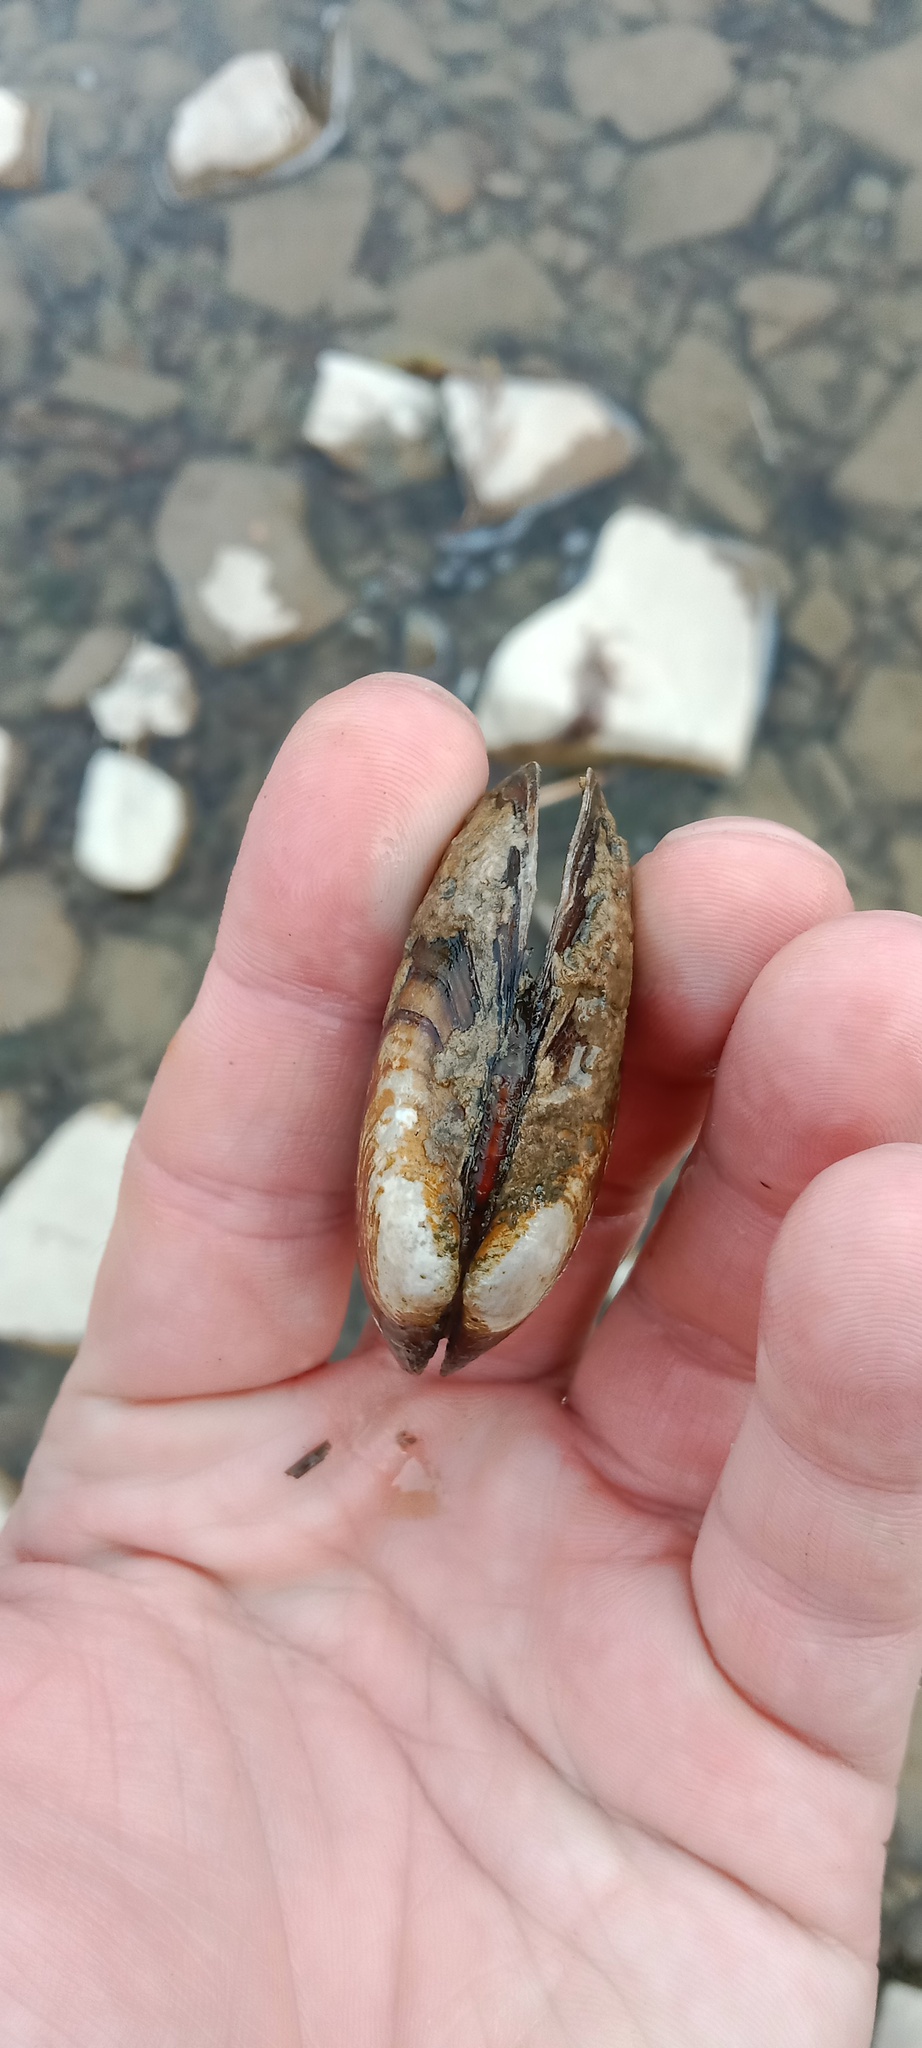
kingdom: Animalia
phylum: Mollusca
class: Bivalvia
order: Unionida
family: Unionidae
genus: Unio
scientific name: Unio crassus
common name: Thick shelled river mussel
